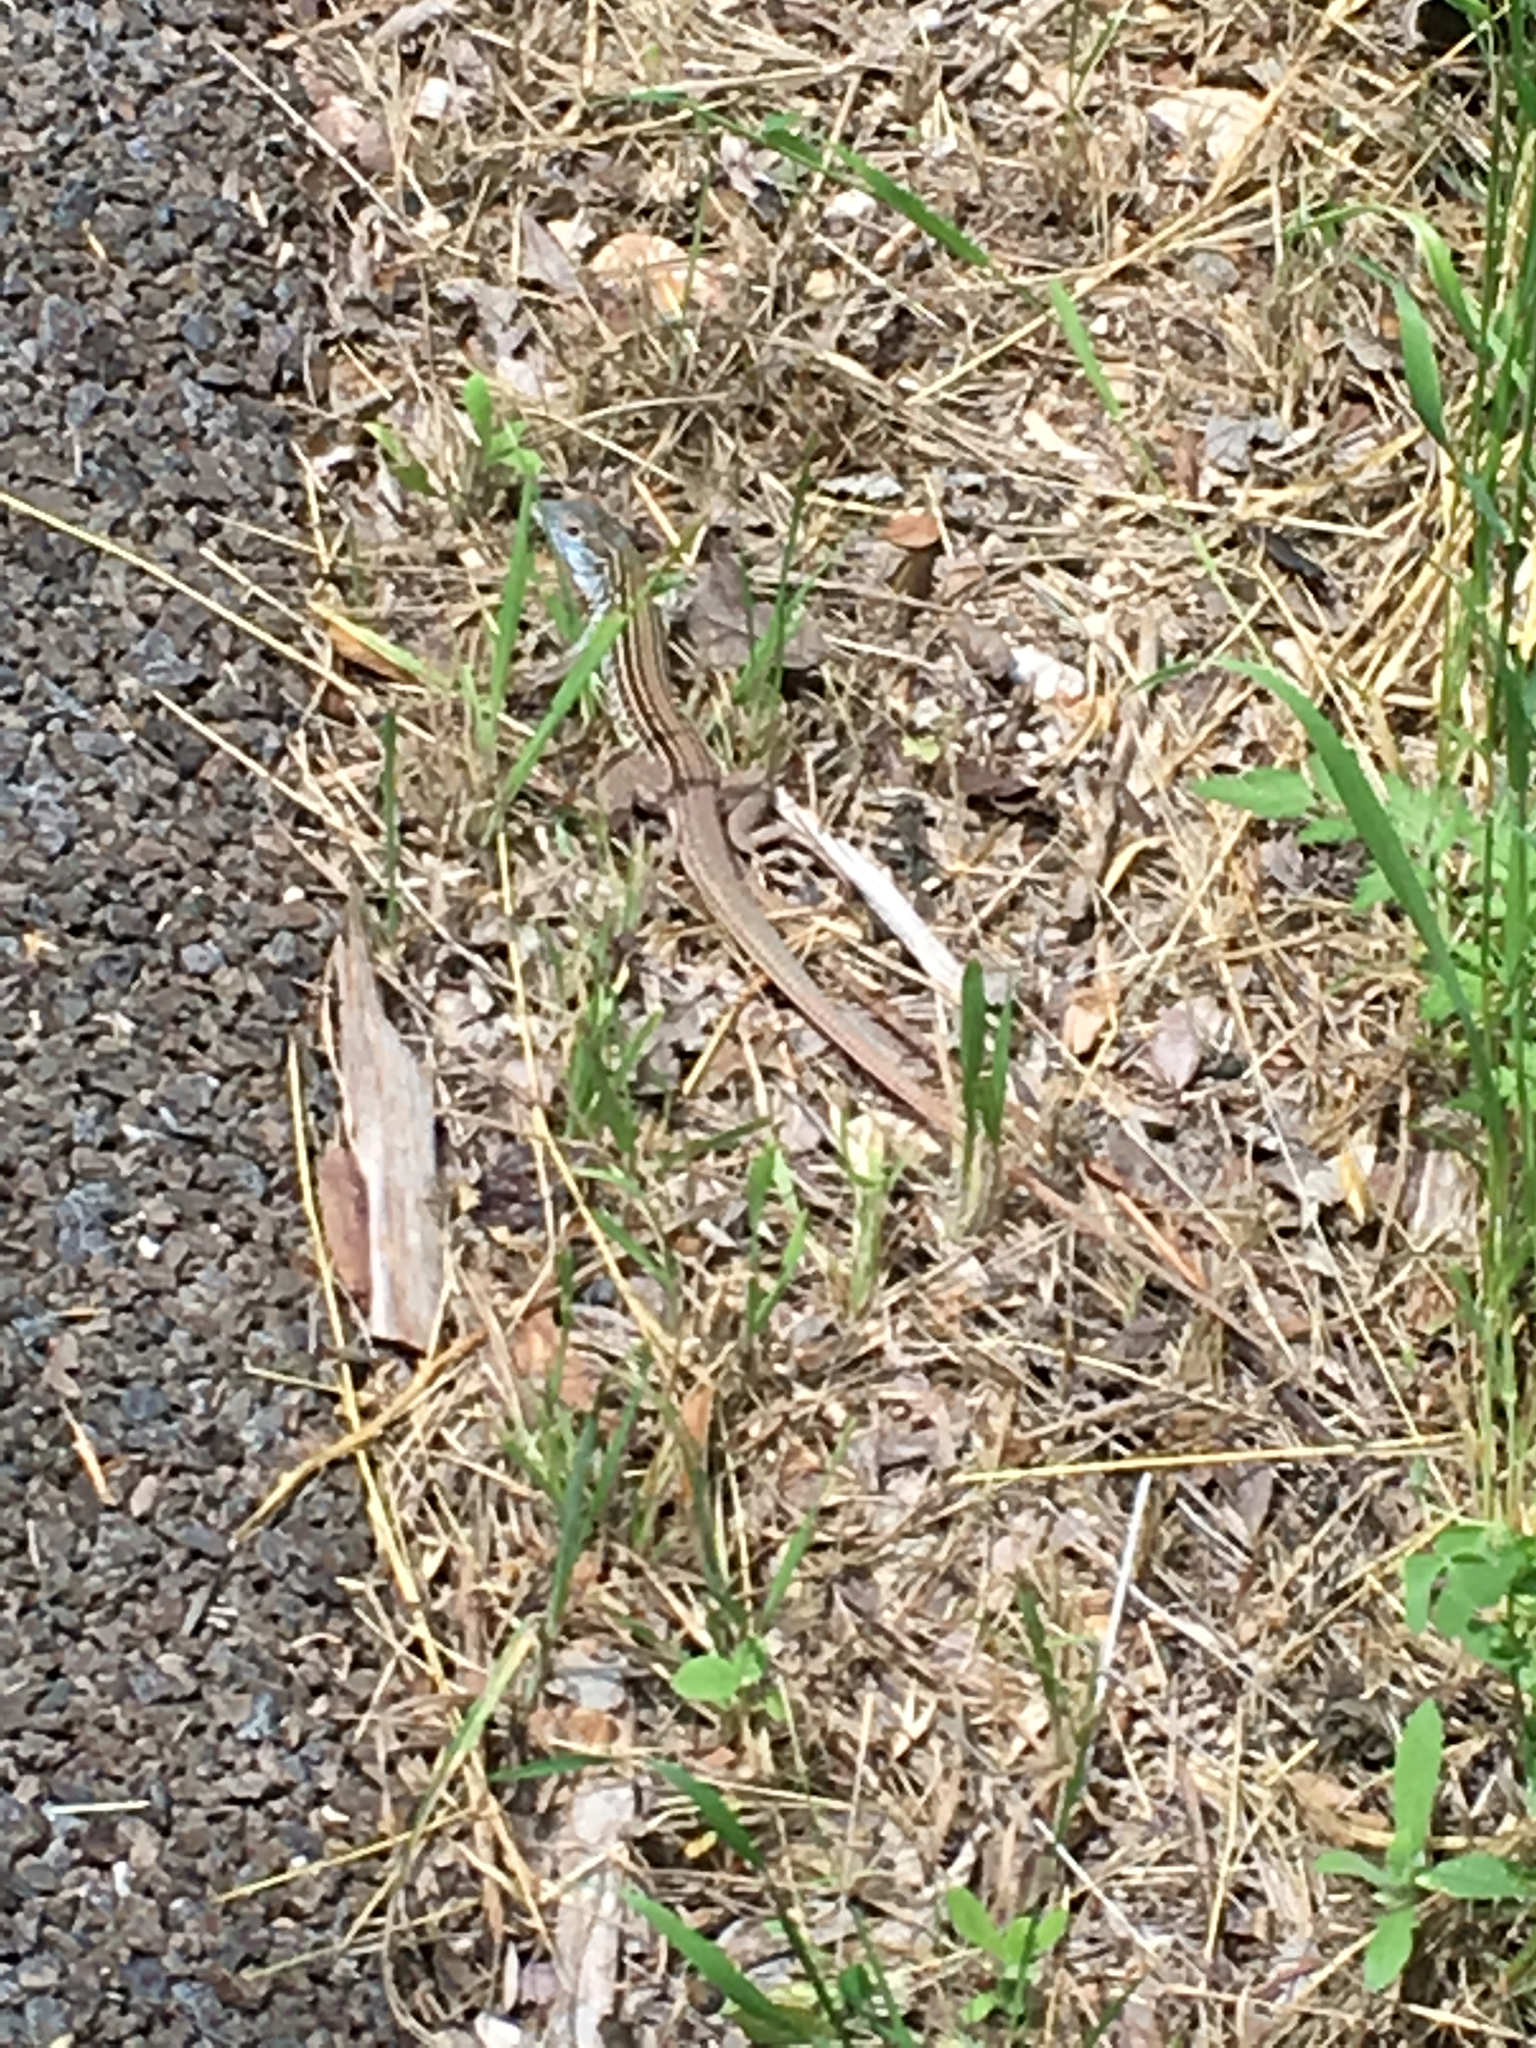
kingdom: Animalia
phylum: Chordata
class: Squamata
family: Teiidae
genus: Aspidoscelis
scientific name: Aspidoscelis gularis
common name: Eastern spotted whiptail
